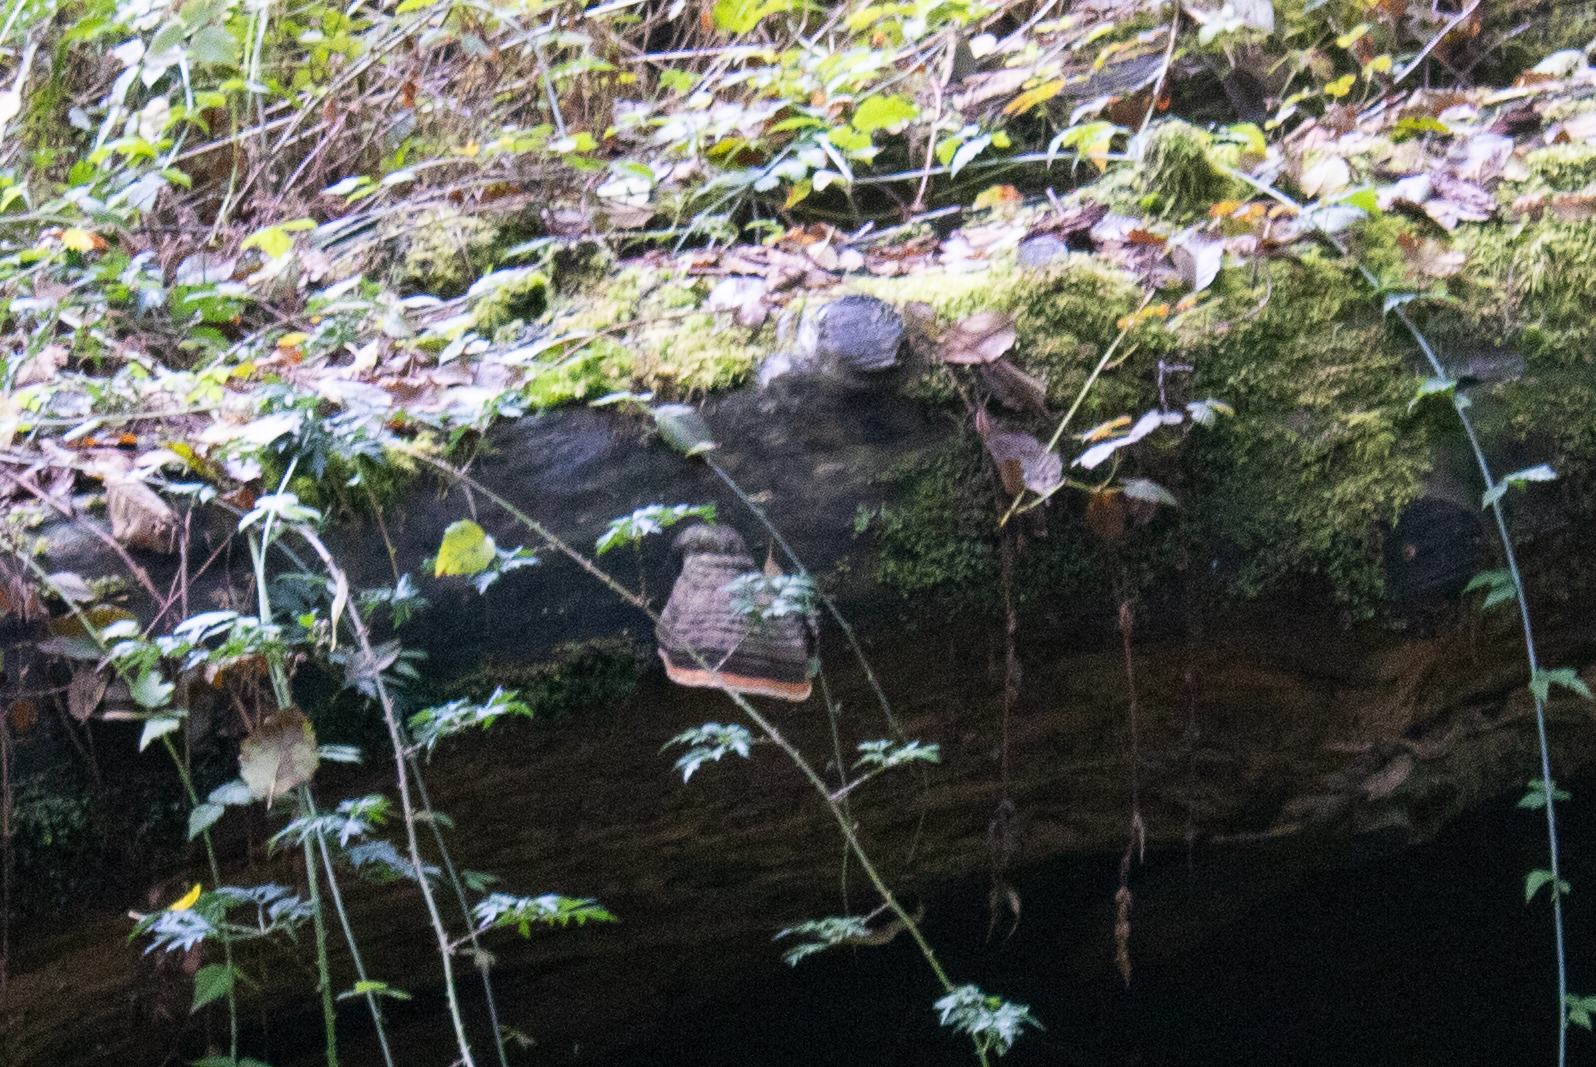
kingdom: Fungi
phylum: Basidiomycota
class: Agaricomycetes
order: Polyporales
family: Fomitopsidaceae
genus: Fomitopsis
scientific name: Fomitopsis mounceae
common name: Northern red belt
